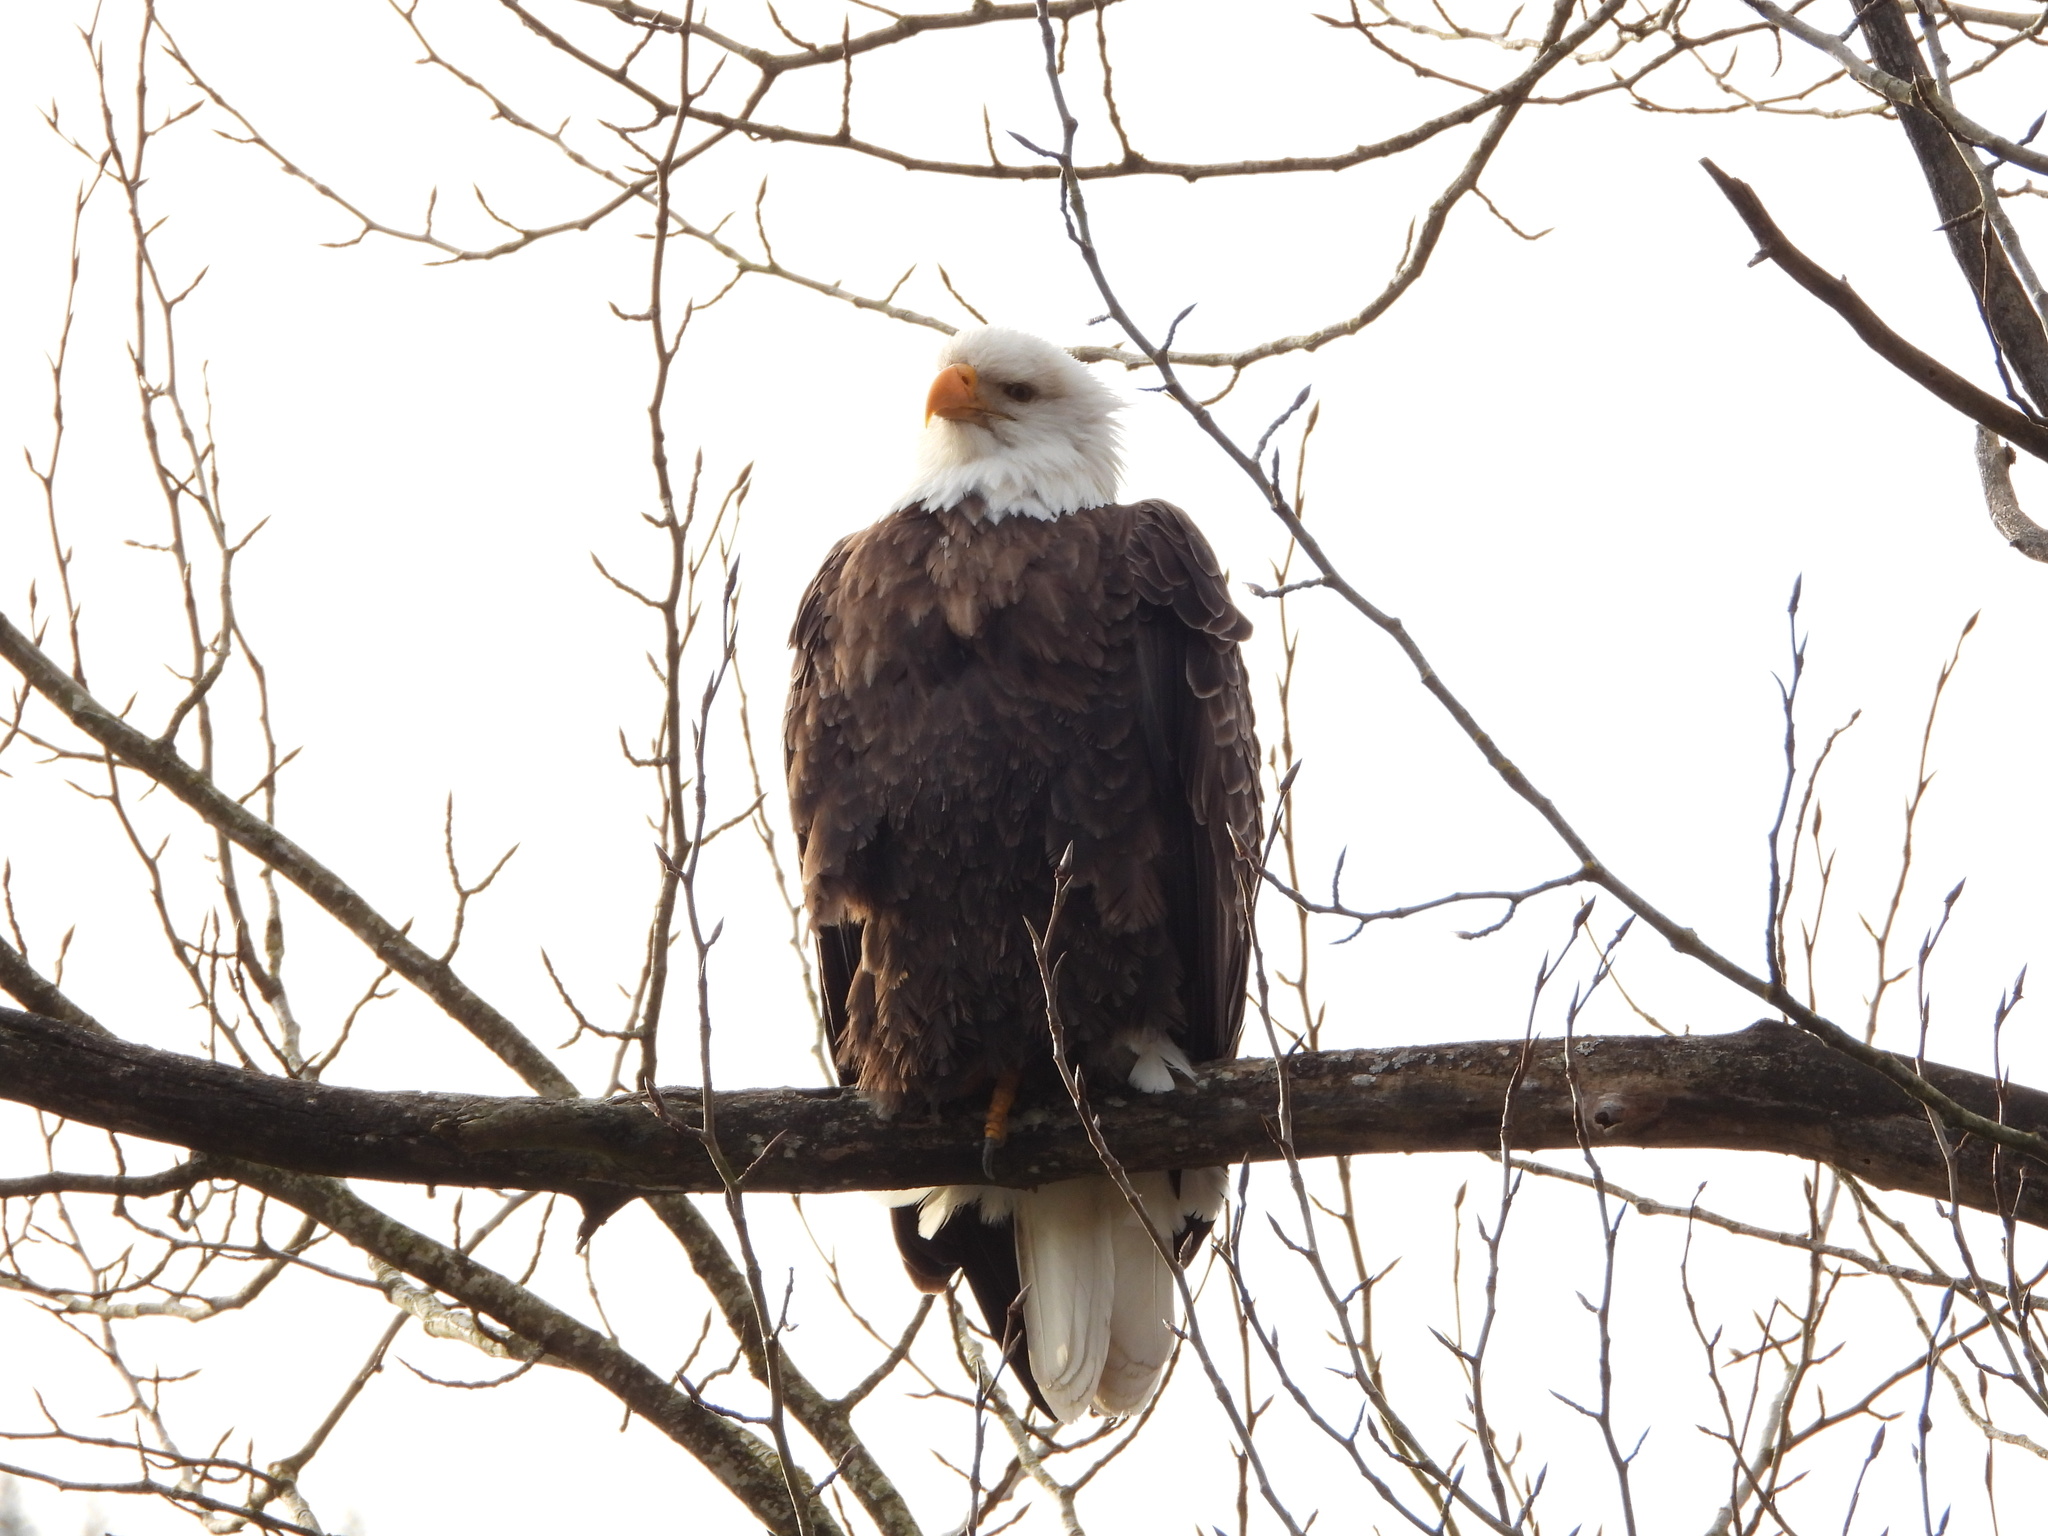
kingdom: Animalia
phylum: Chordata
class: Aves
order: Accipitriformes
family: Accipitridae
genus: Haliaeetus
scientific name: Haliaeetus leucocephalus
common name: Bald eagle
